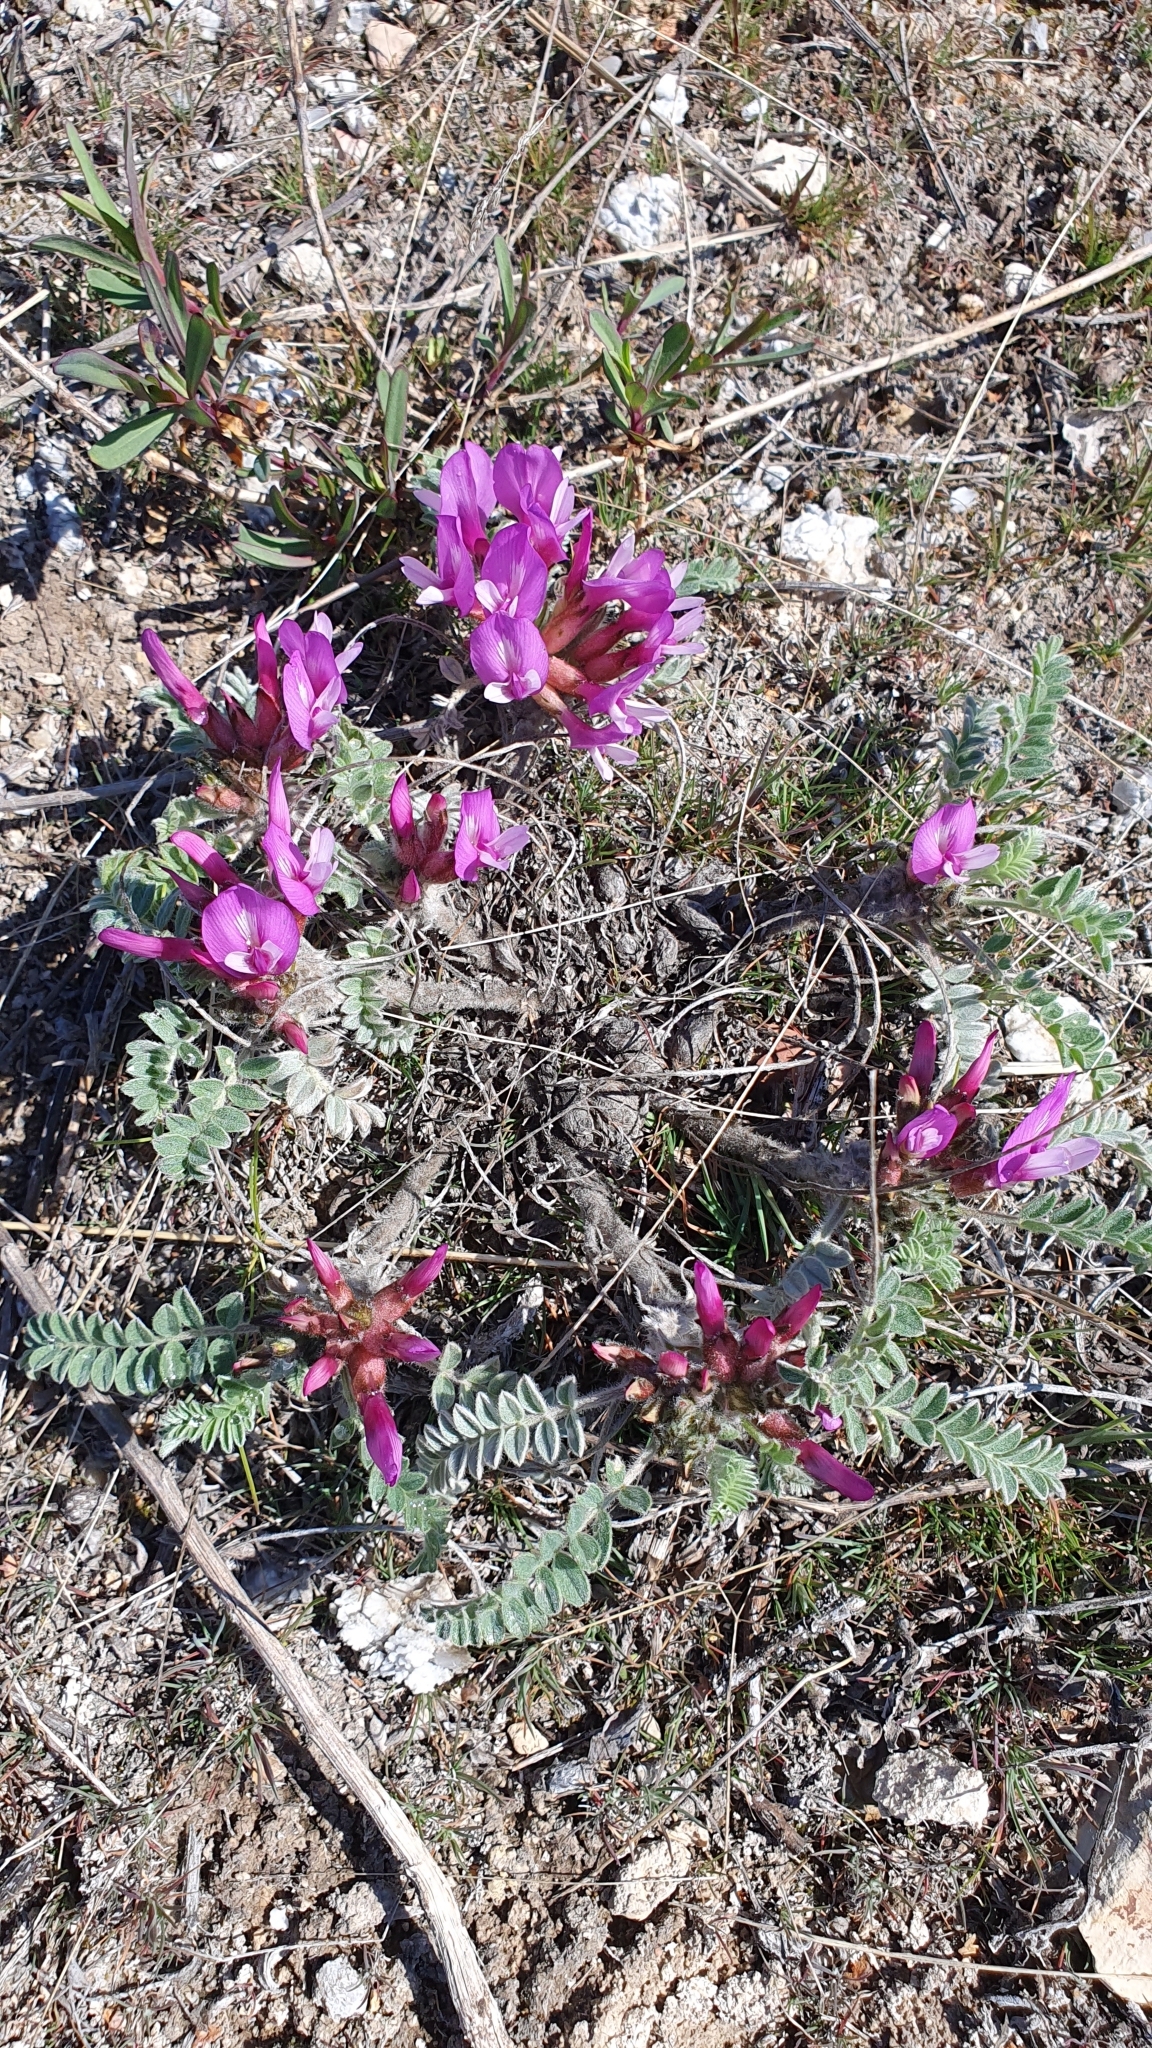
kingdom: Plantae
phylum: Tracheophyta
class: Magnoliopsida
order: Fabales
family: Fabaceae
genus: Astragalus
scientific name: Astragalus testiculatus
